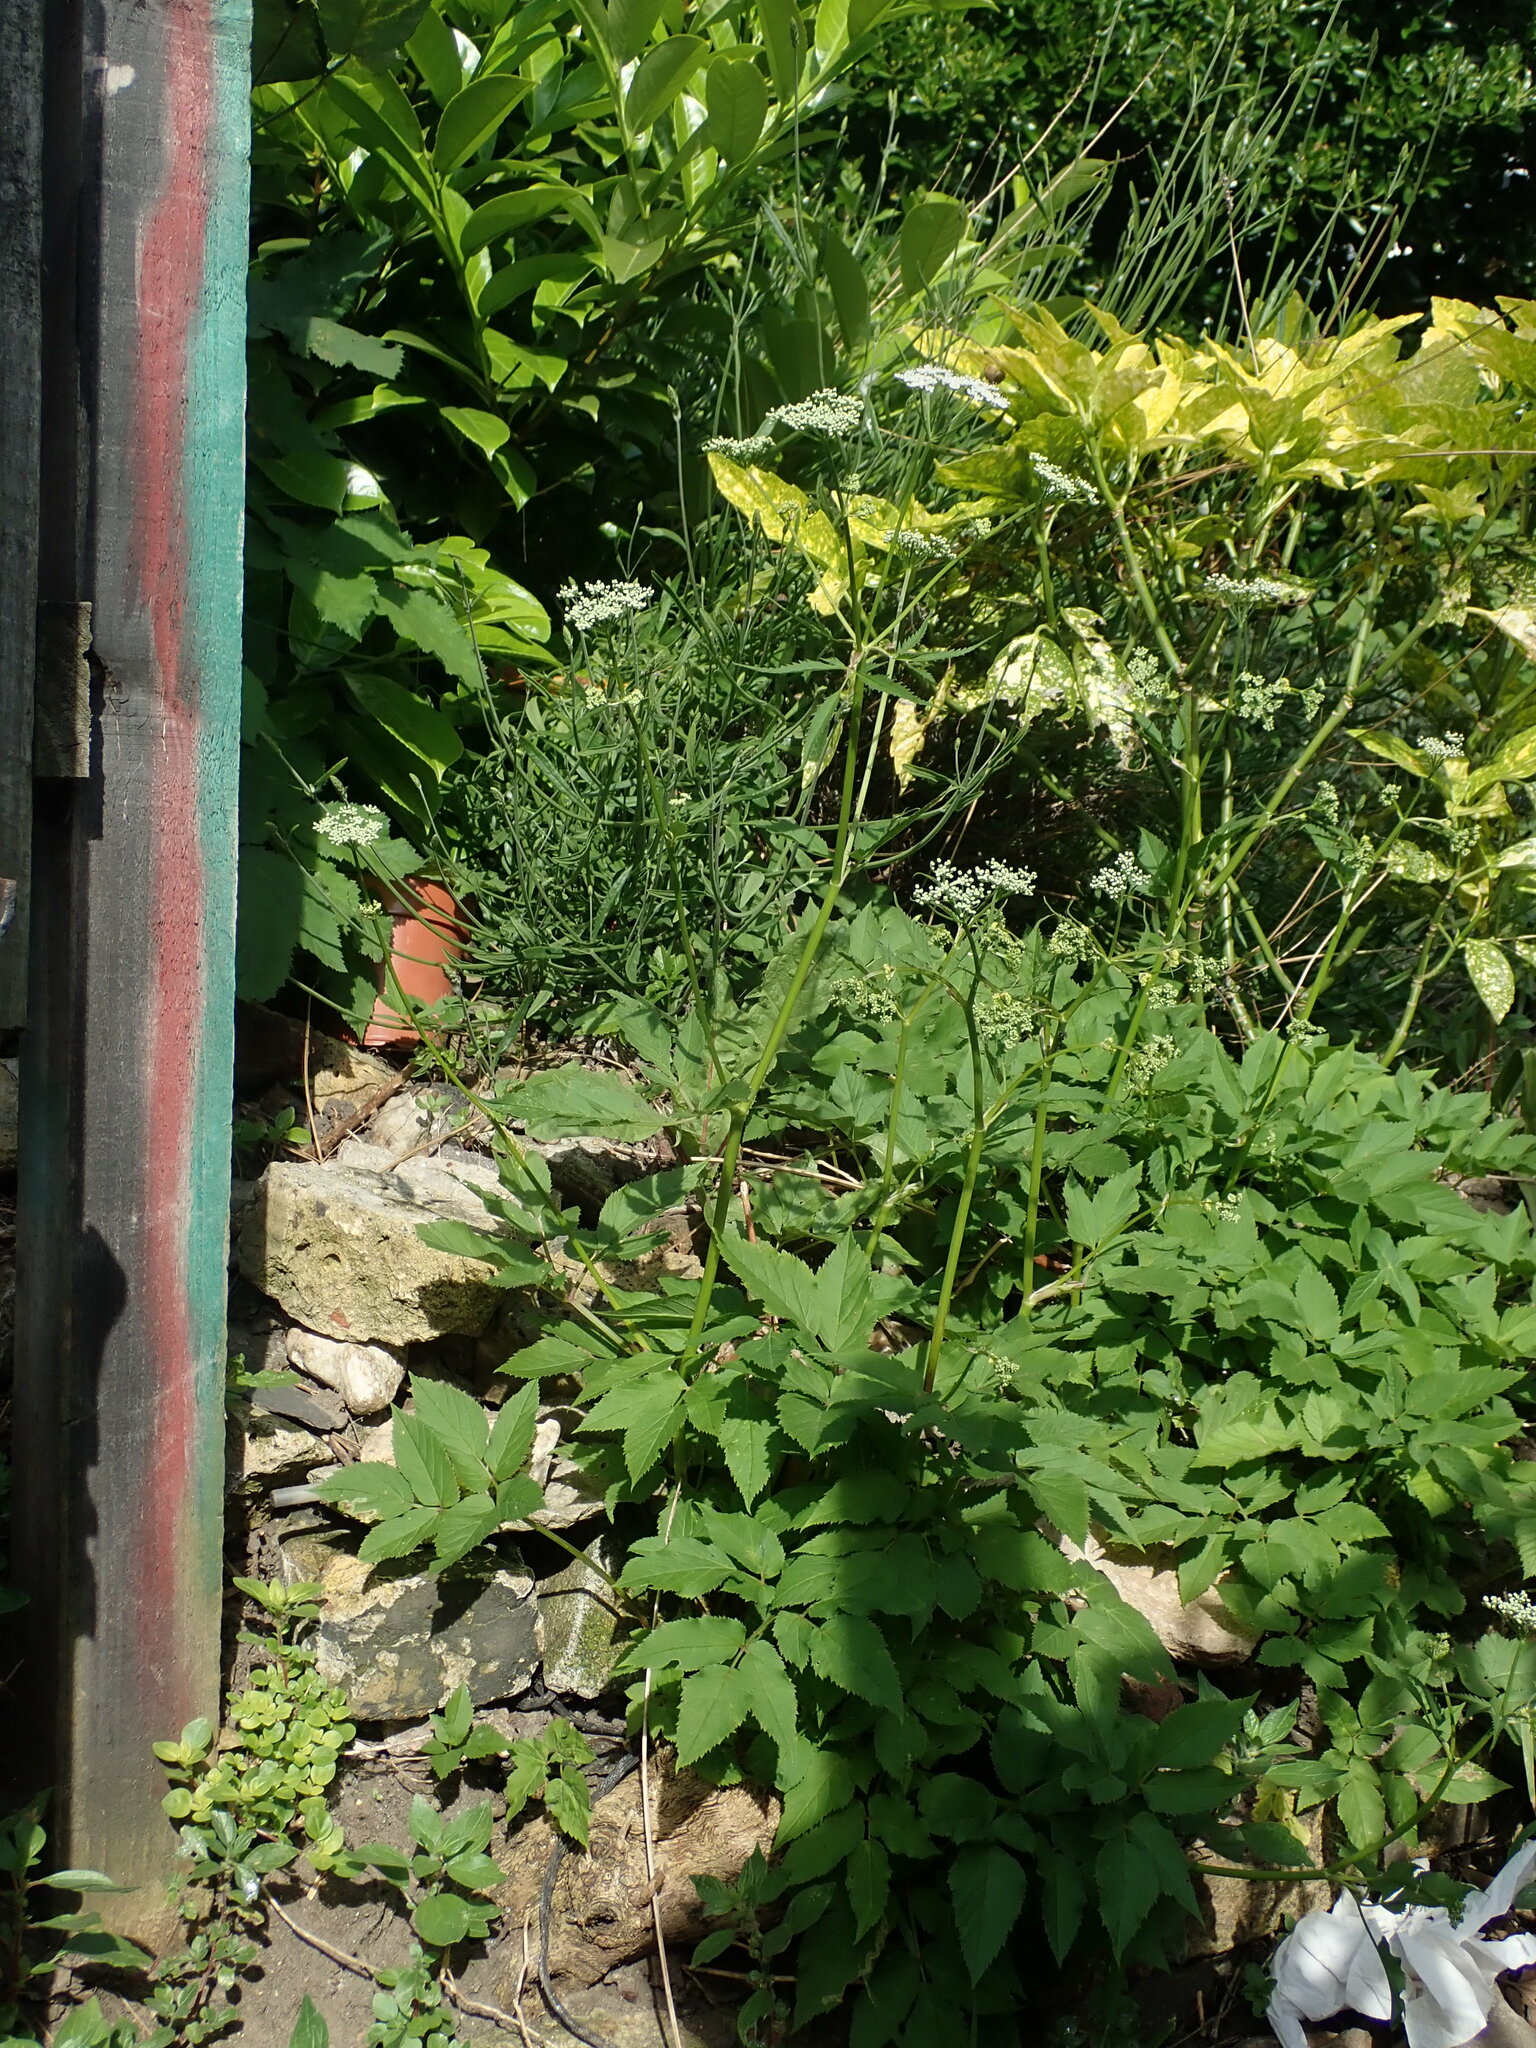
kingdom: Plantae
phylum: Tracheophyta
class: Magnoliopsida
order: Apiales
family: Apiaceae
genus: Aegopodium
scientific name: Aegopodium podagraria
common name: Ground-elder
